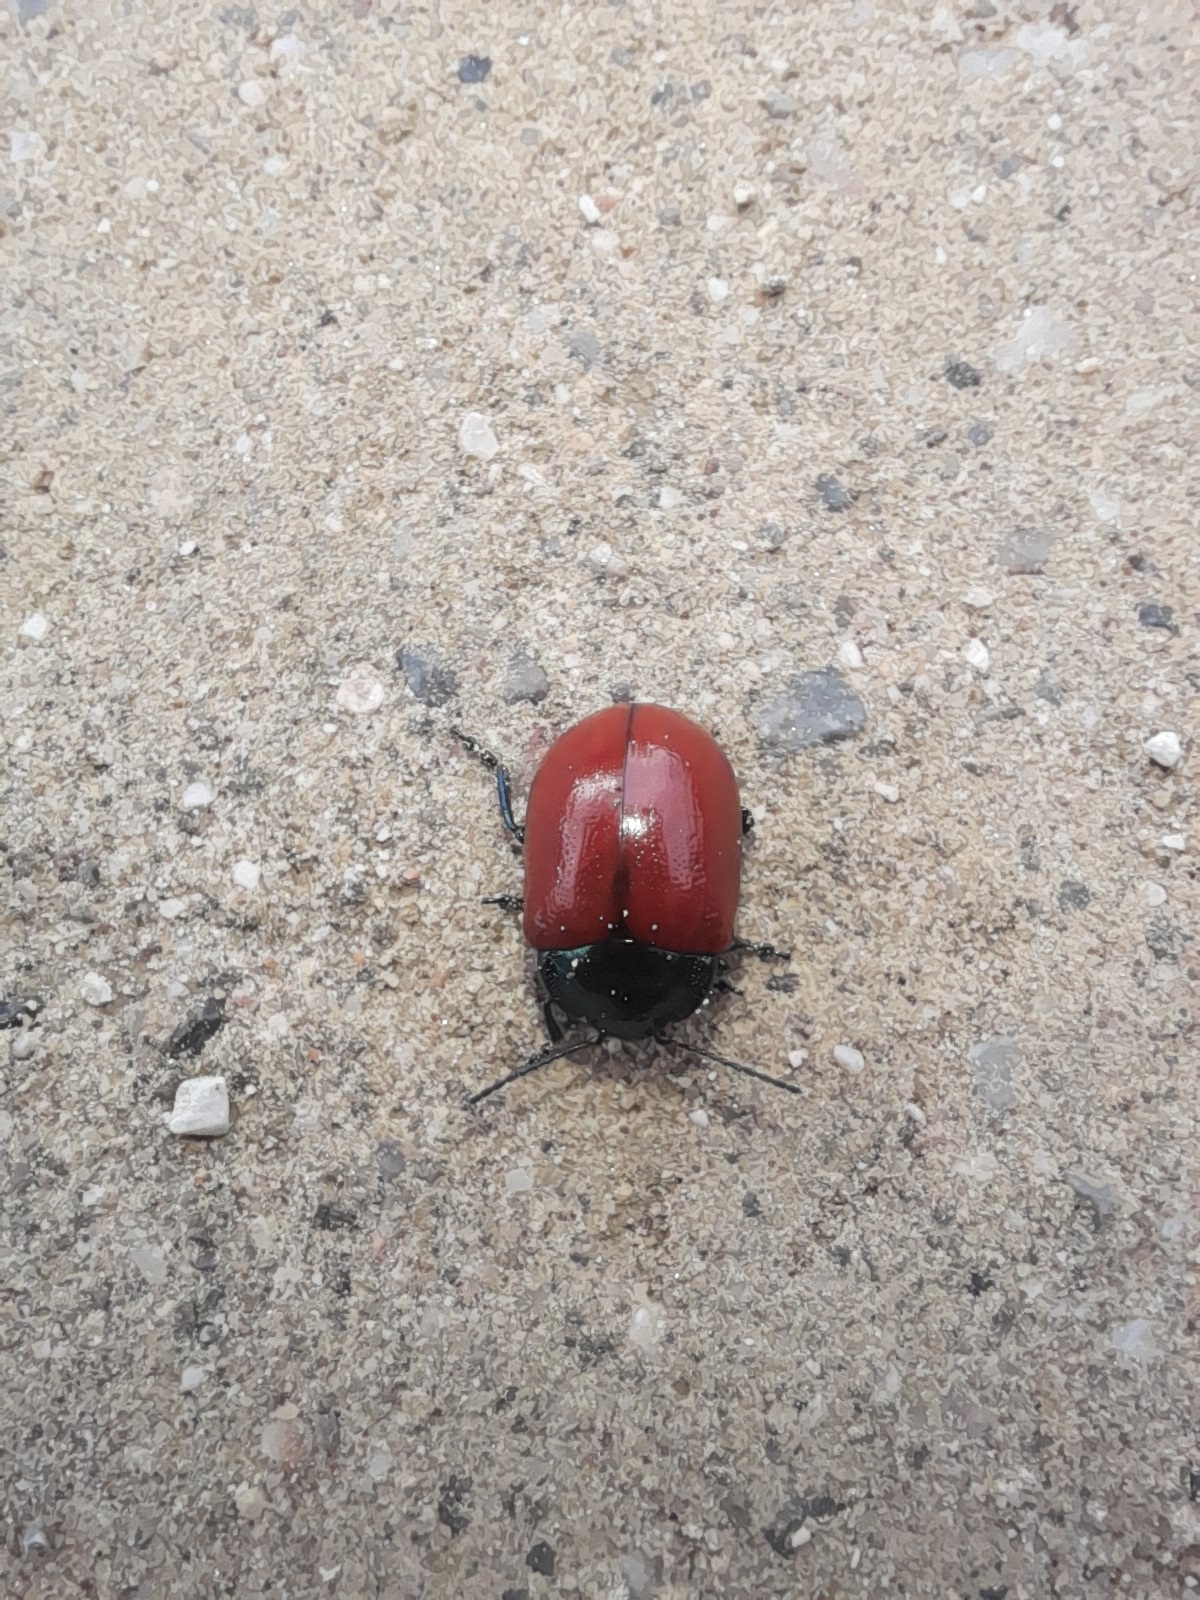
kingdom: Animalia
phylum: Arthropoda
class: Insecta
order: Coleoptera
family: Chrysomelidae
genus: Chrysolina
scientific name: Chrysolina grossa
